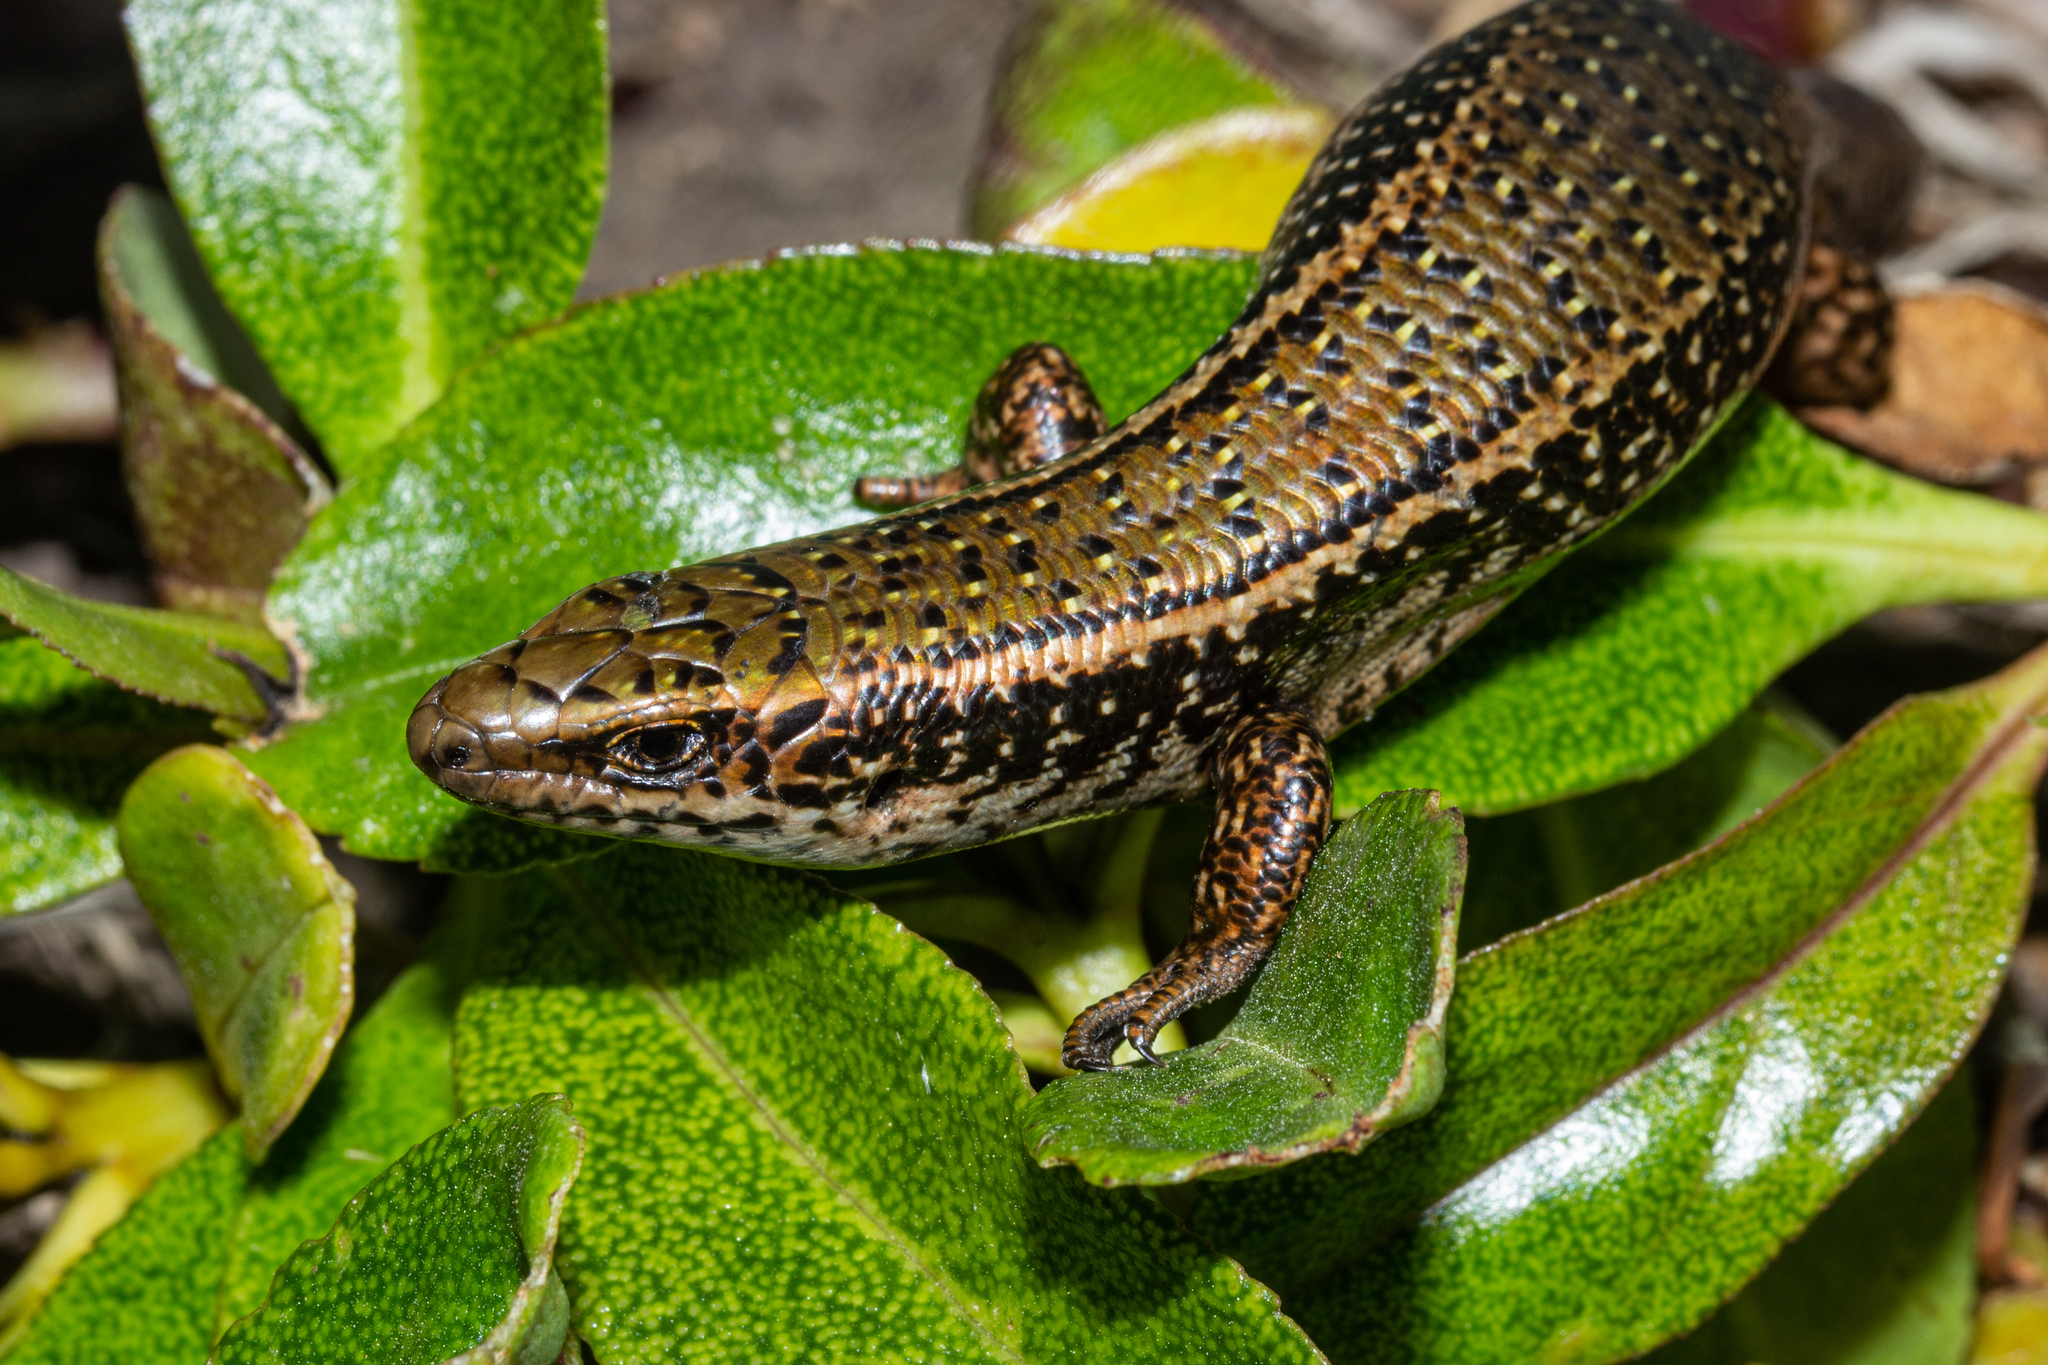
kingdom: Animalia
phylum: Chordata
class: Squamata
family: Scincidae
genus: Oligosoma
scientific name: Oligosoma lineoocellatum
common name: Spotted skink
